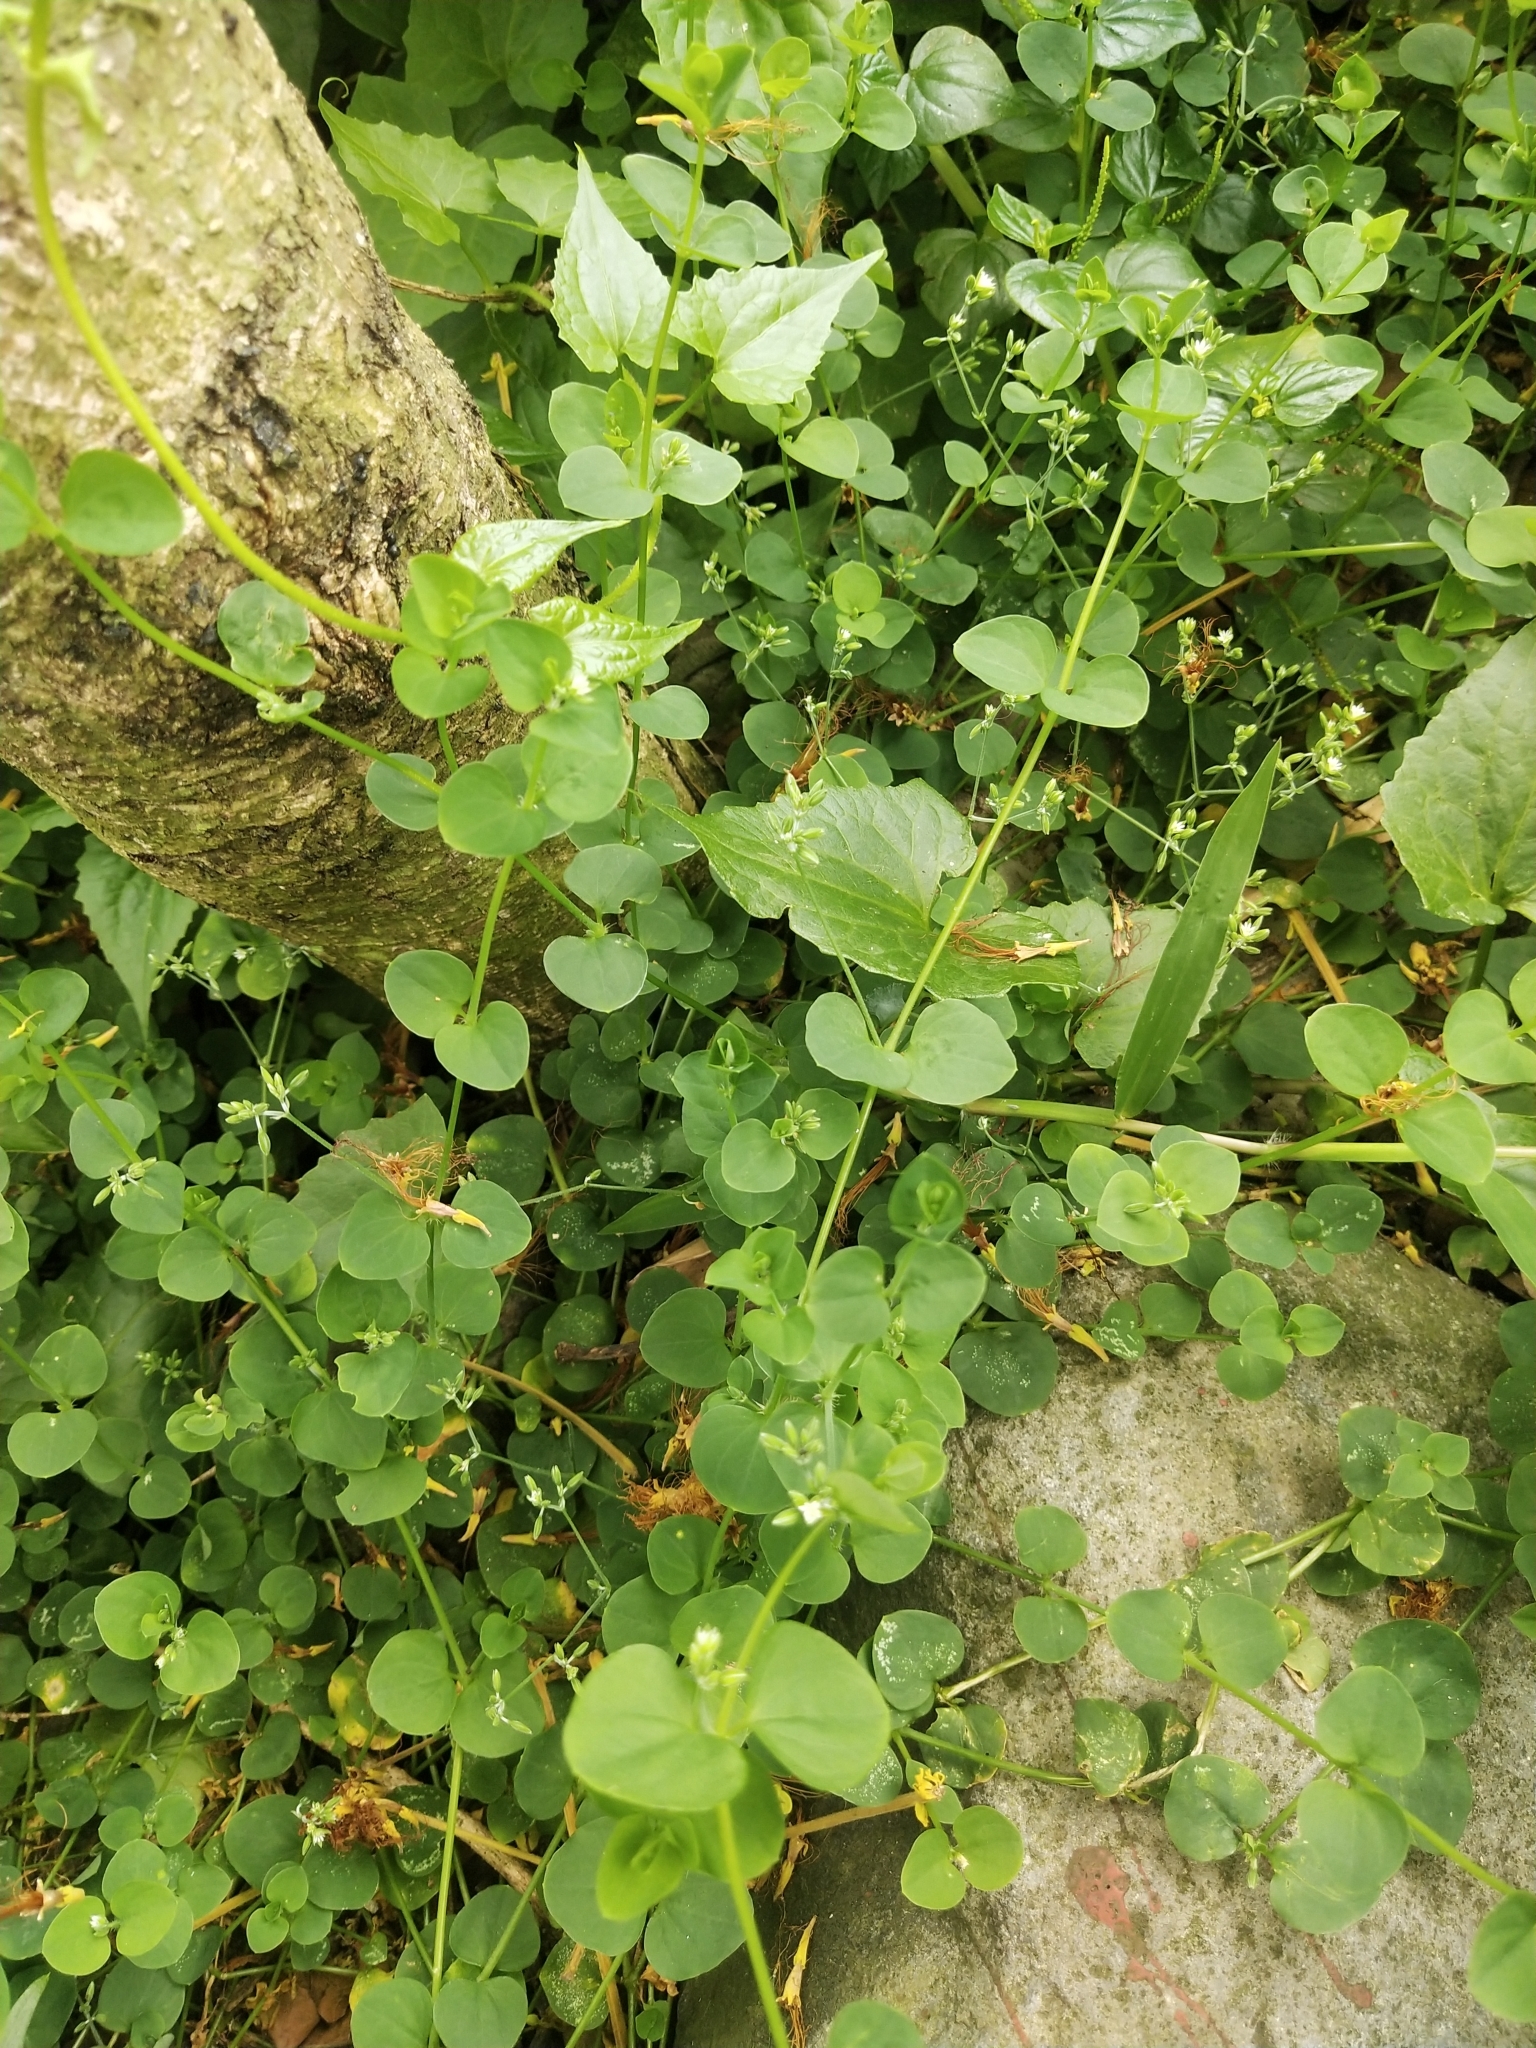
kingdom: Plantae
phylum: Tracheophyta
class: Magnoliopsida
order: Caryophyllales
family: Caryophyllaceae
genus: Drymaria
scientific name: Drymaria cordata
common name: Whitesnow
